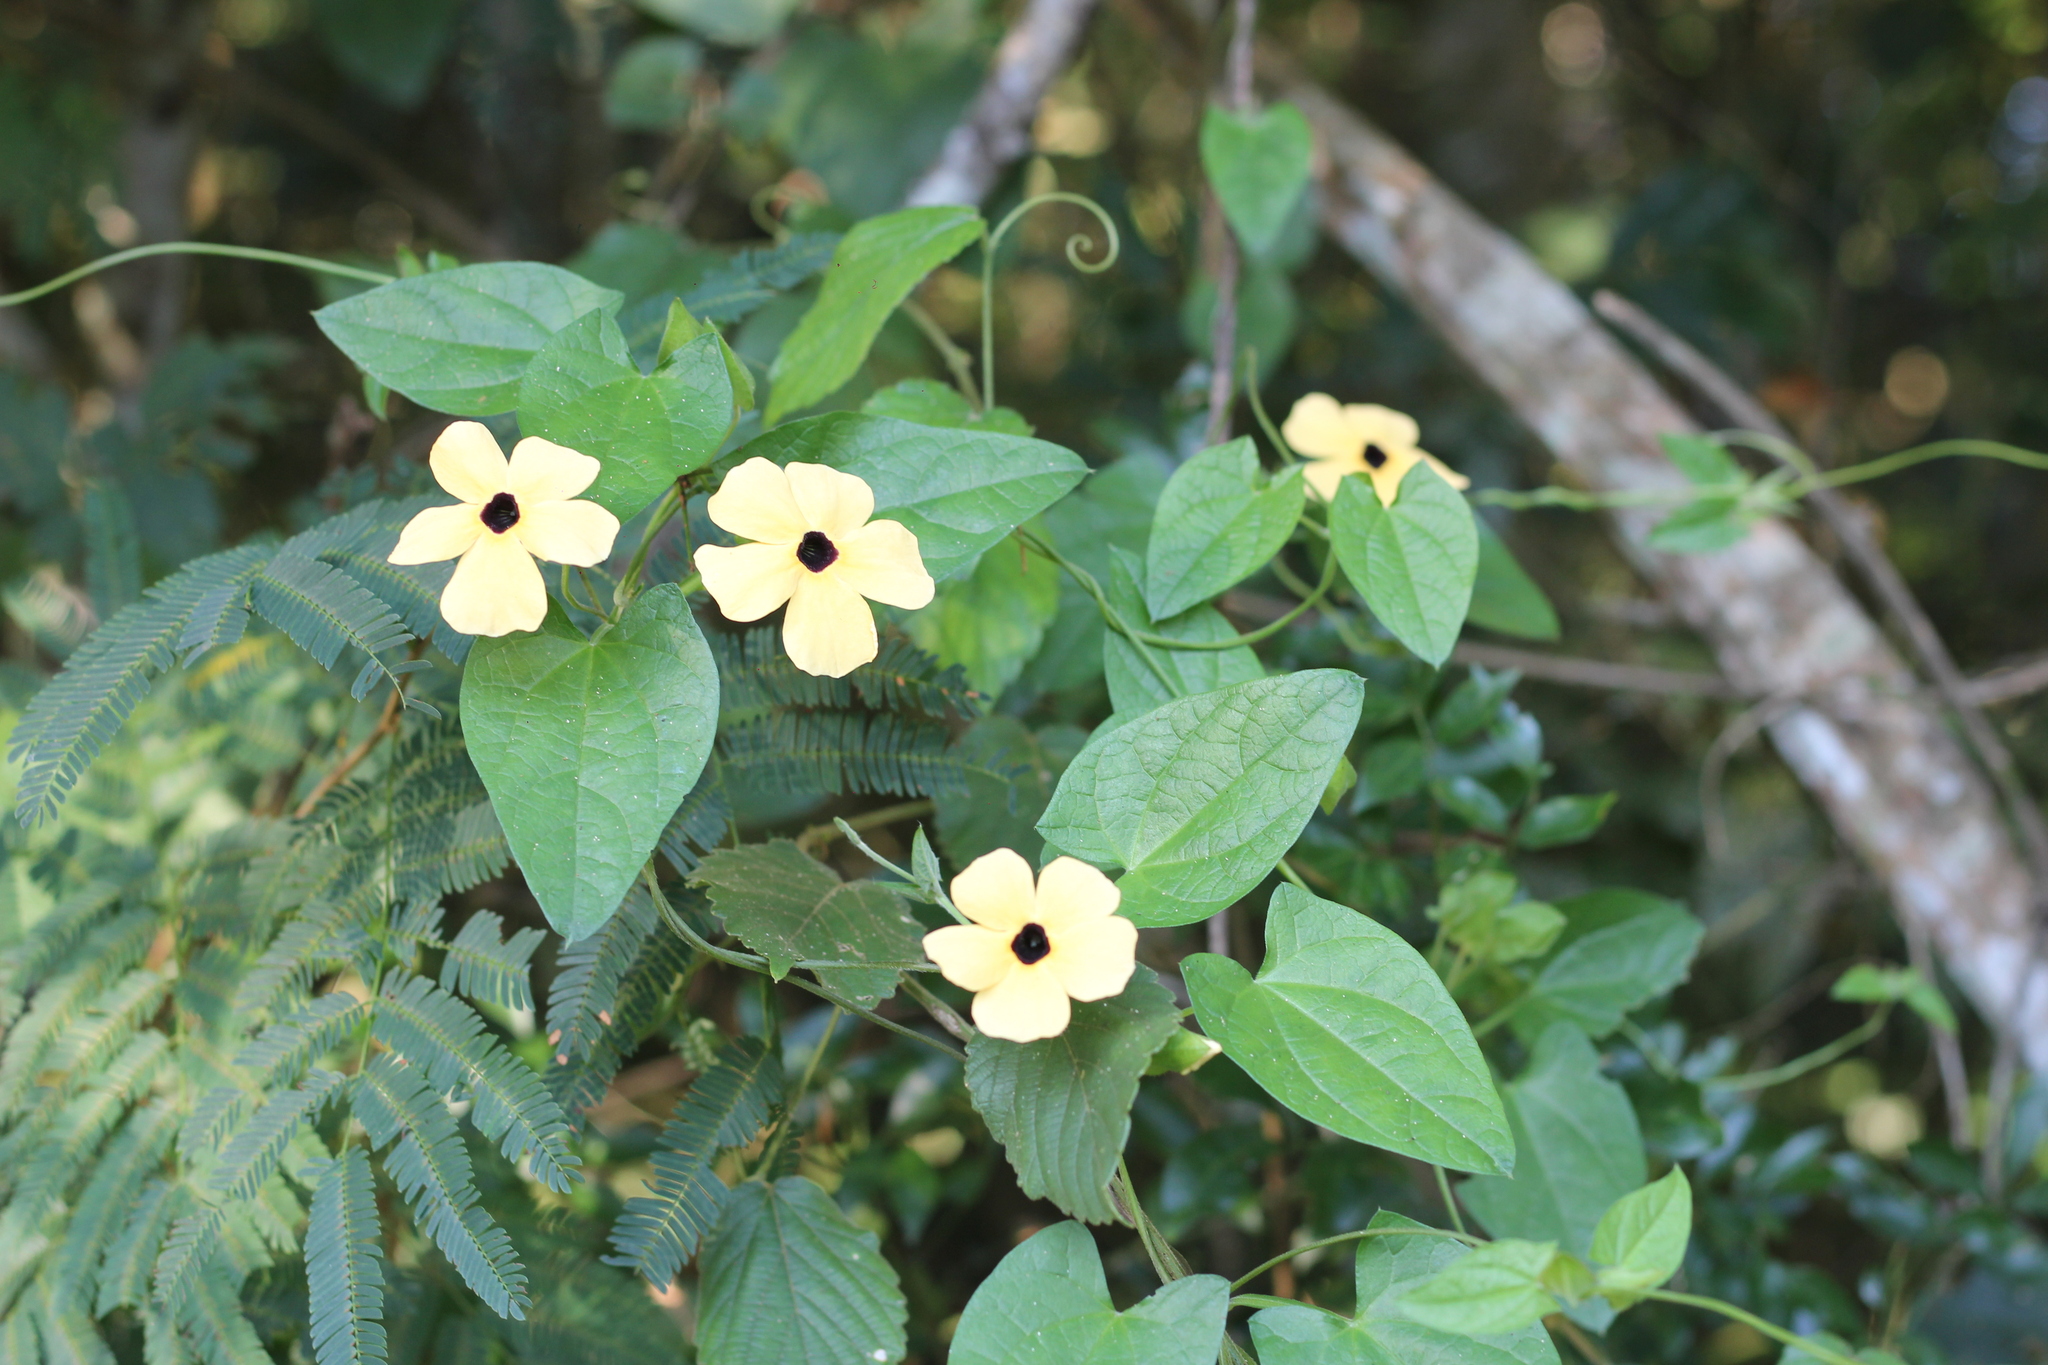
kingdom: Plantae
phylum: Tracheophyta
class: Magnoliopsida
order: Lamiales
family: Acanthaceae
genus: Thunbergia
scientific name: Thunbergia alata
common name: Blackeyed susan vine
